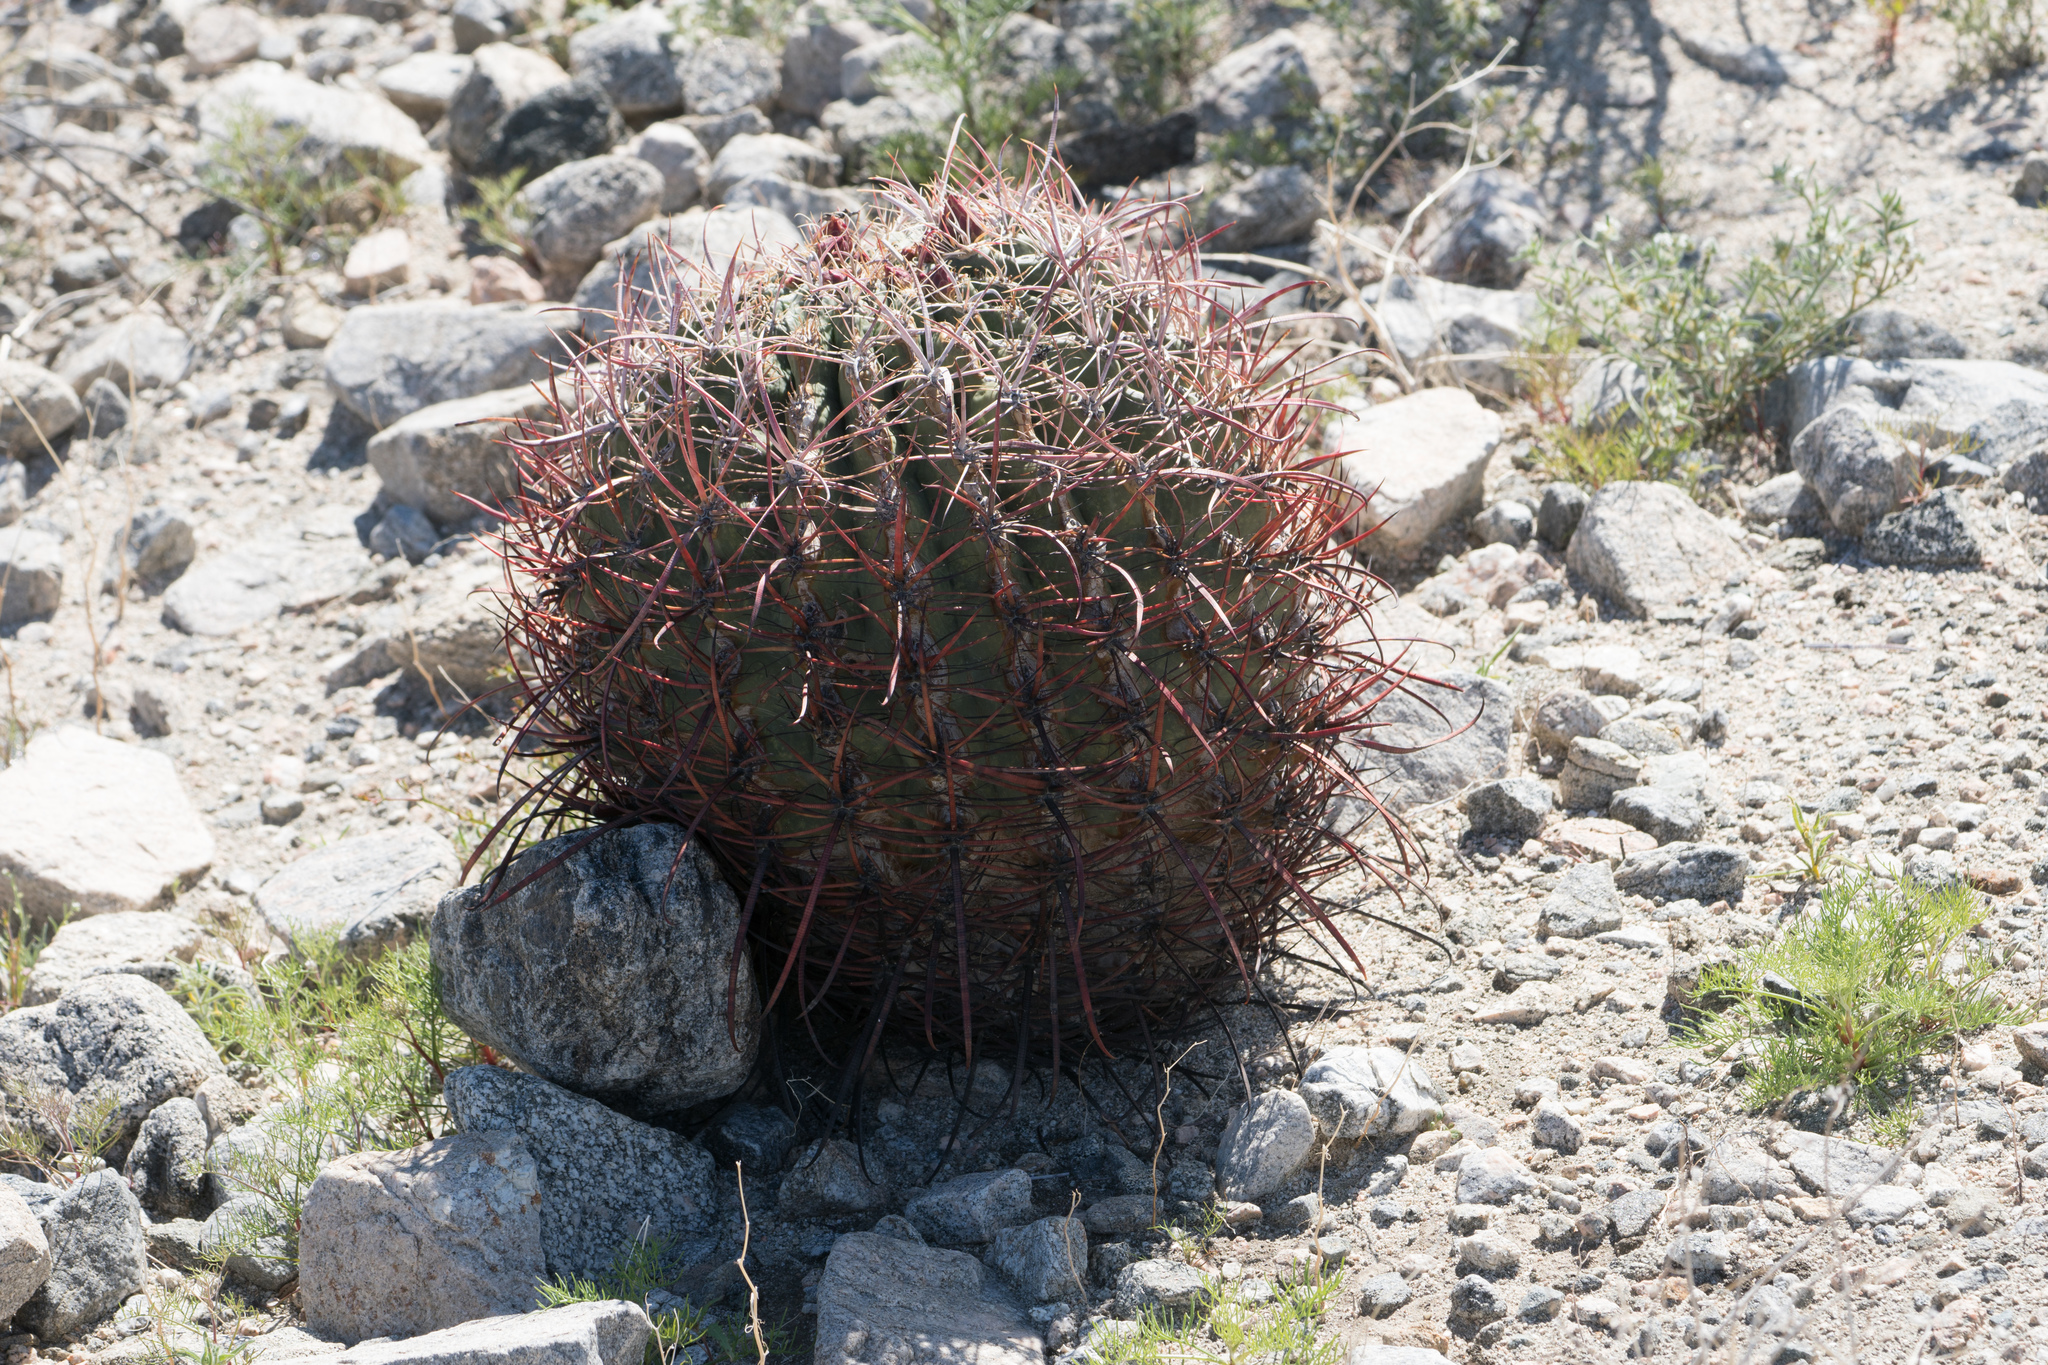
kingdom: Plantae
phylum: Tracheophyta
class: Magnoliopsida
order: Caryophyllales
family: Cactaceae
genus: Ferocactus
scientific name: Ferocactus cylindraceus
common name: California barrel cactus
